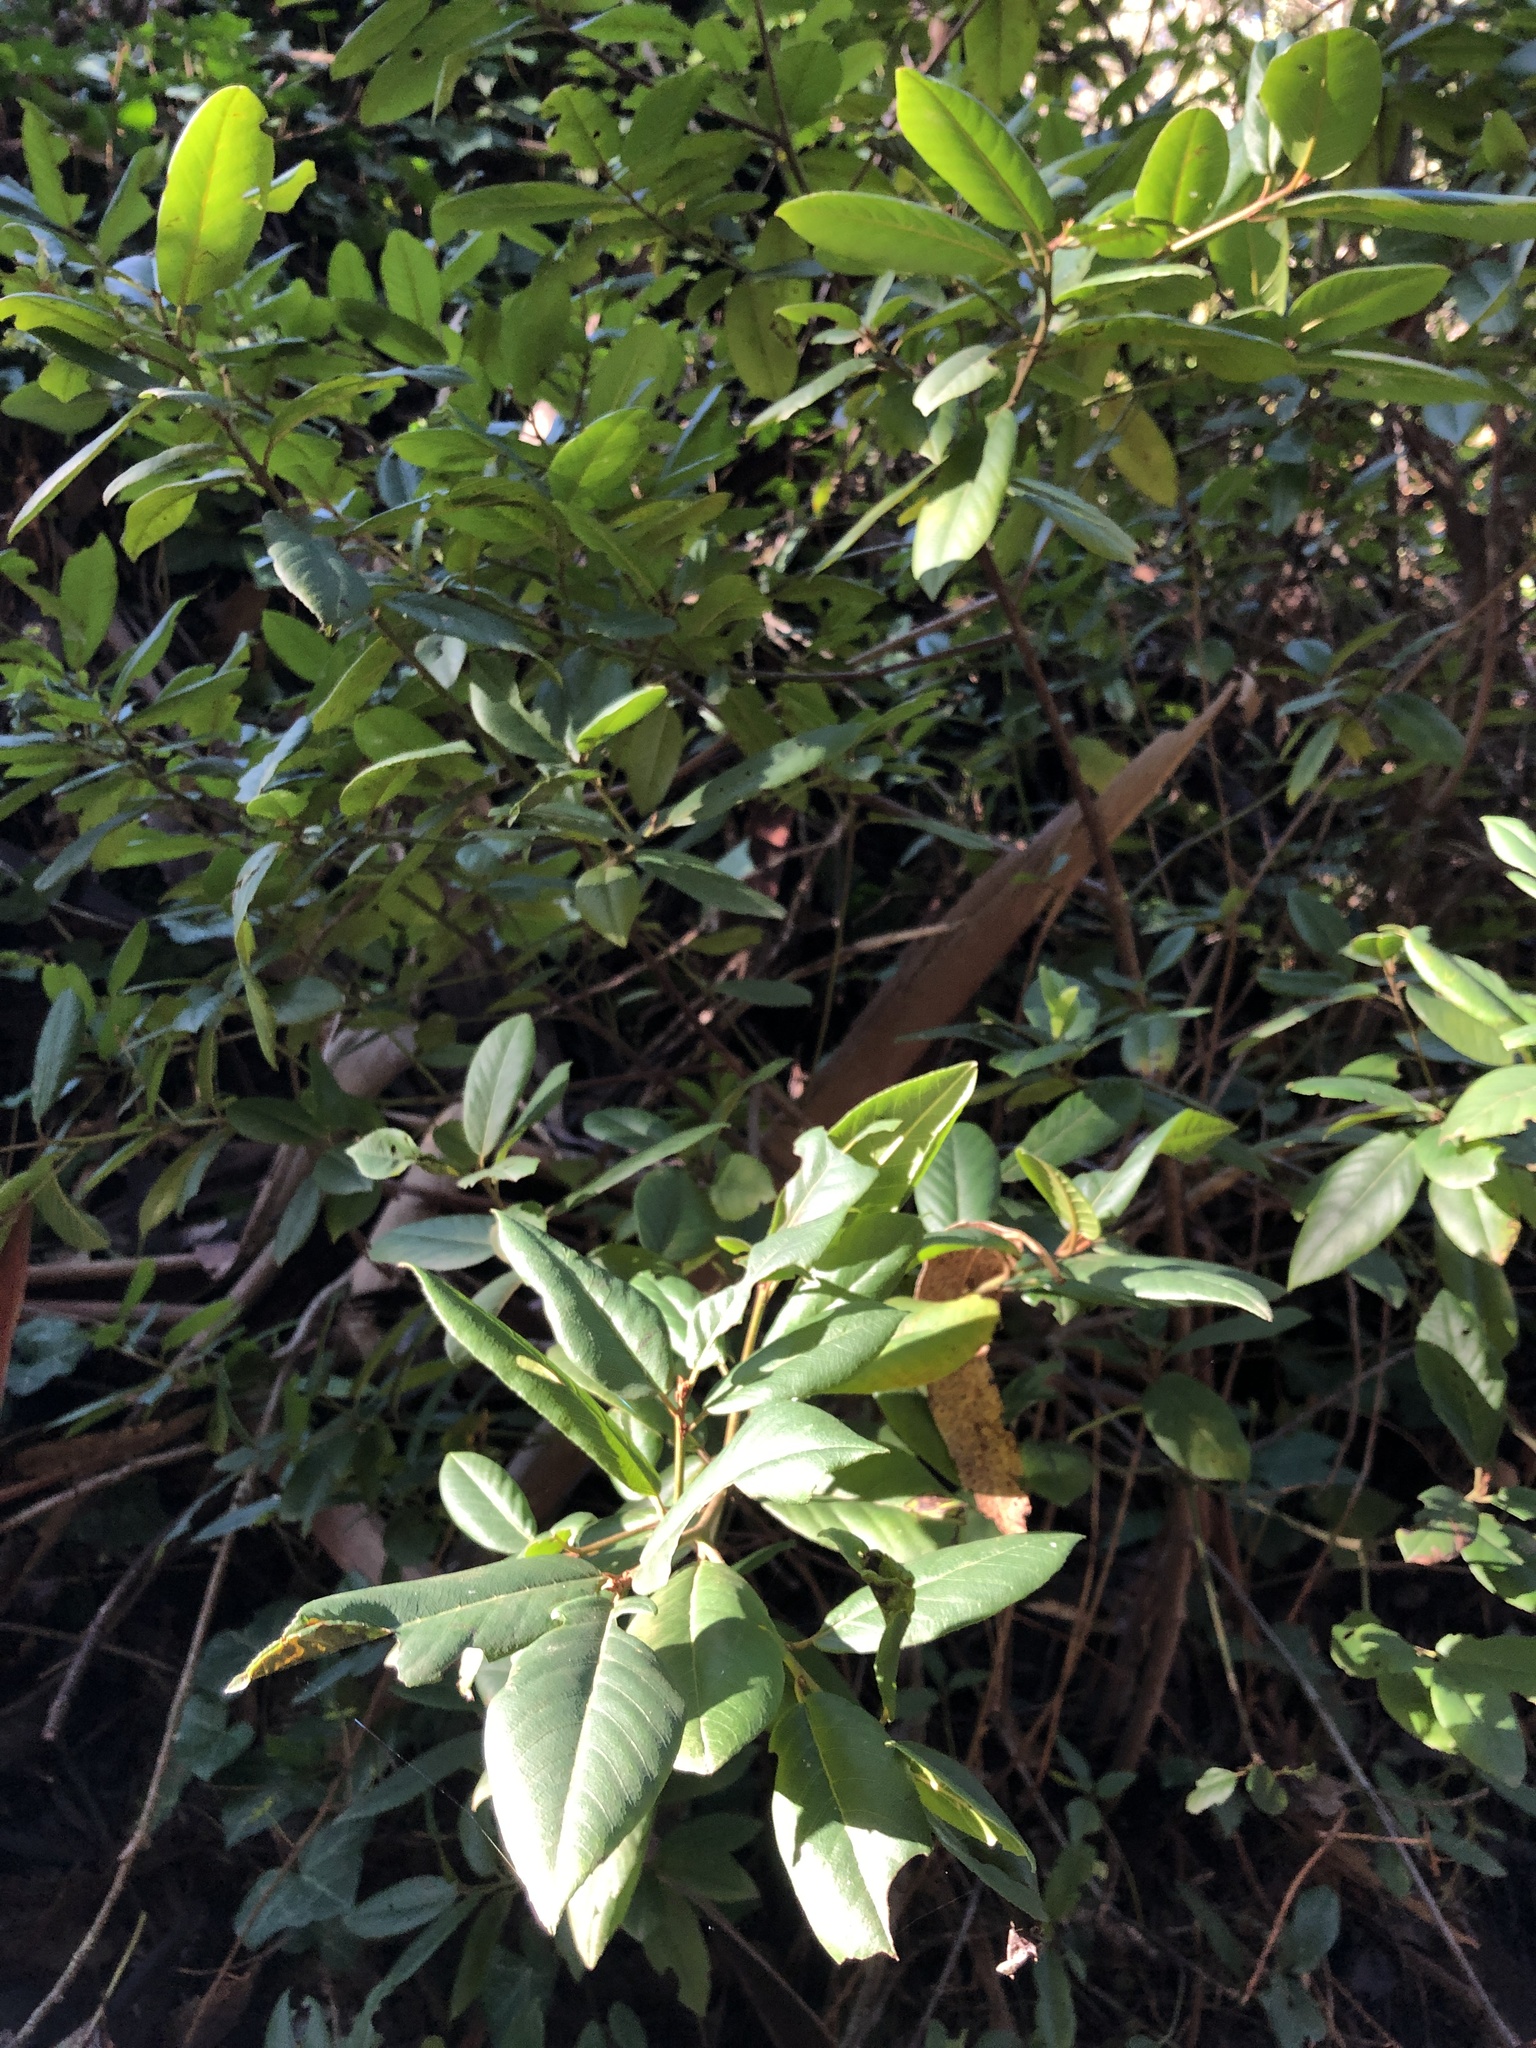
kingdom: Plantae
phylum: Tracheophyta
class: Magnoliopsida
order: Rosales
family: Rhamnaceae
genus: Frangula
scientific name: Frangula californica
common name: California buckthorn
